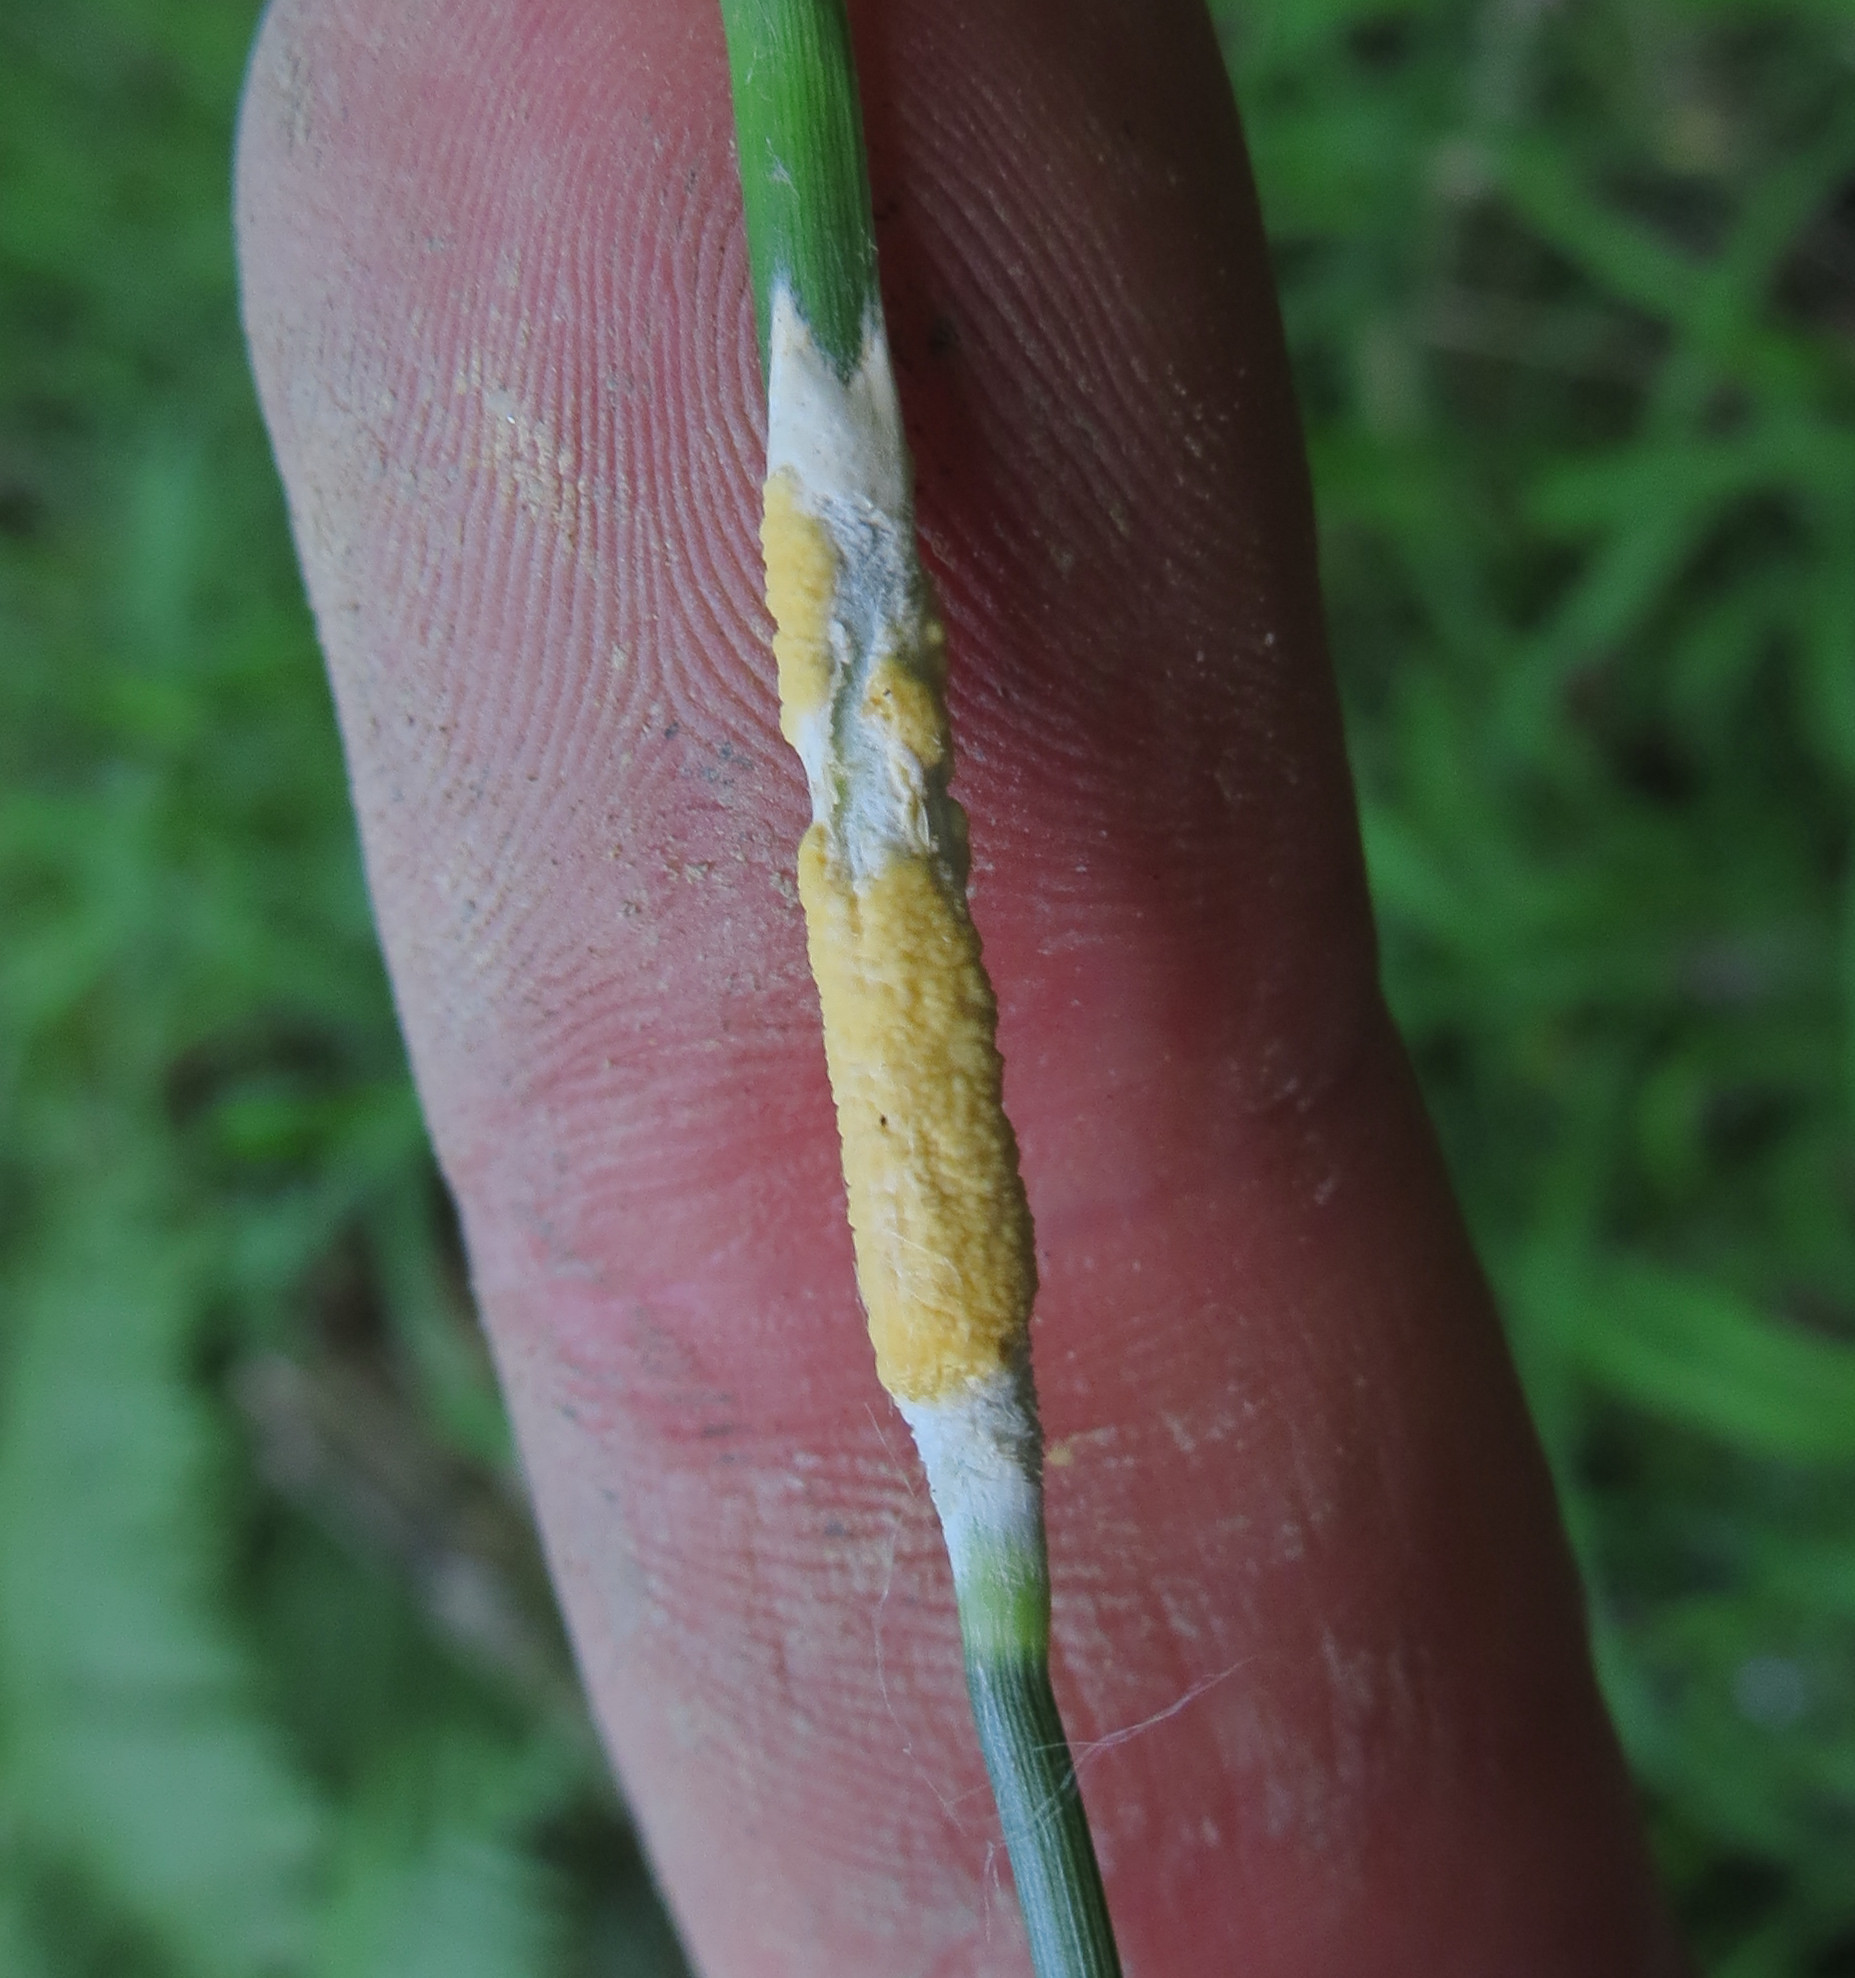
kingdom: Fungi
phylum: Ascomycota
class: Sordariomycetes
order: Hypocreales
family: Clavicipitaceae
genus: Epichloe
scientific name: Epichloe glyceriae
